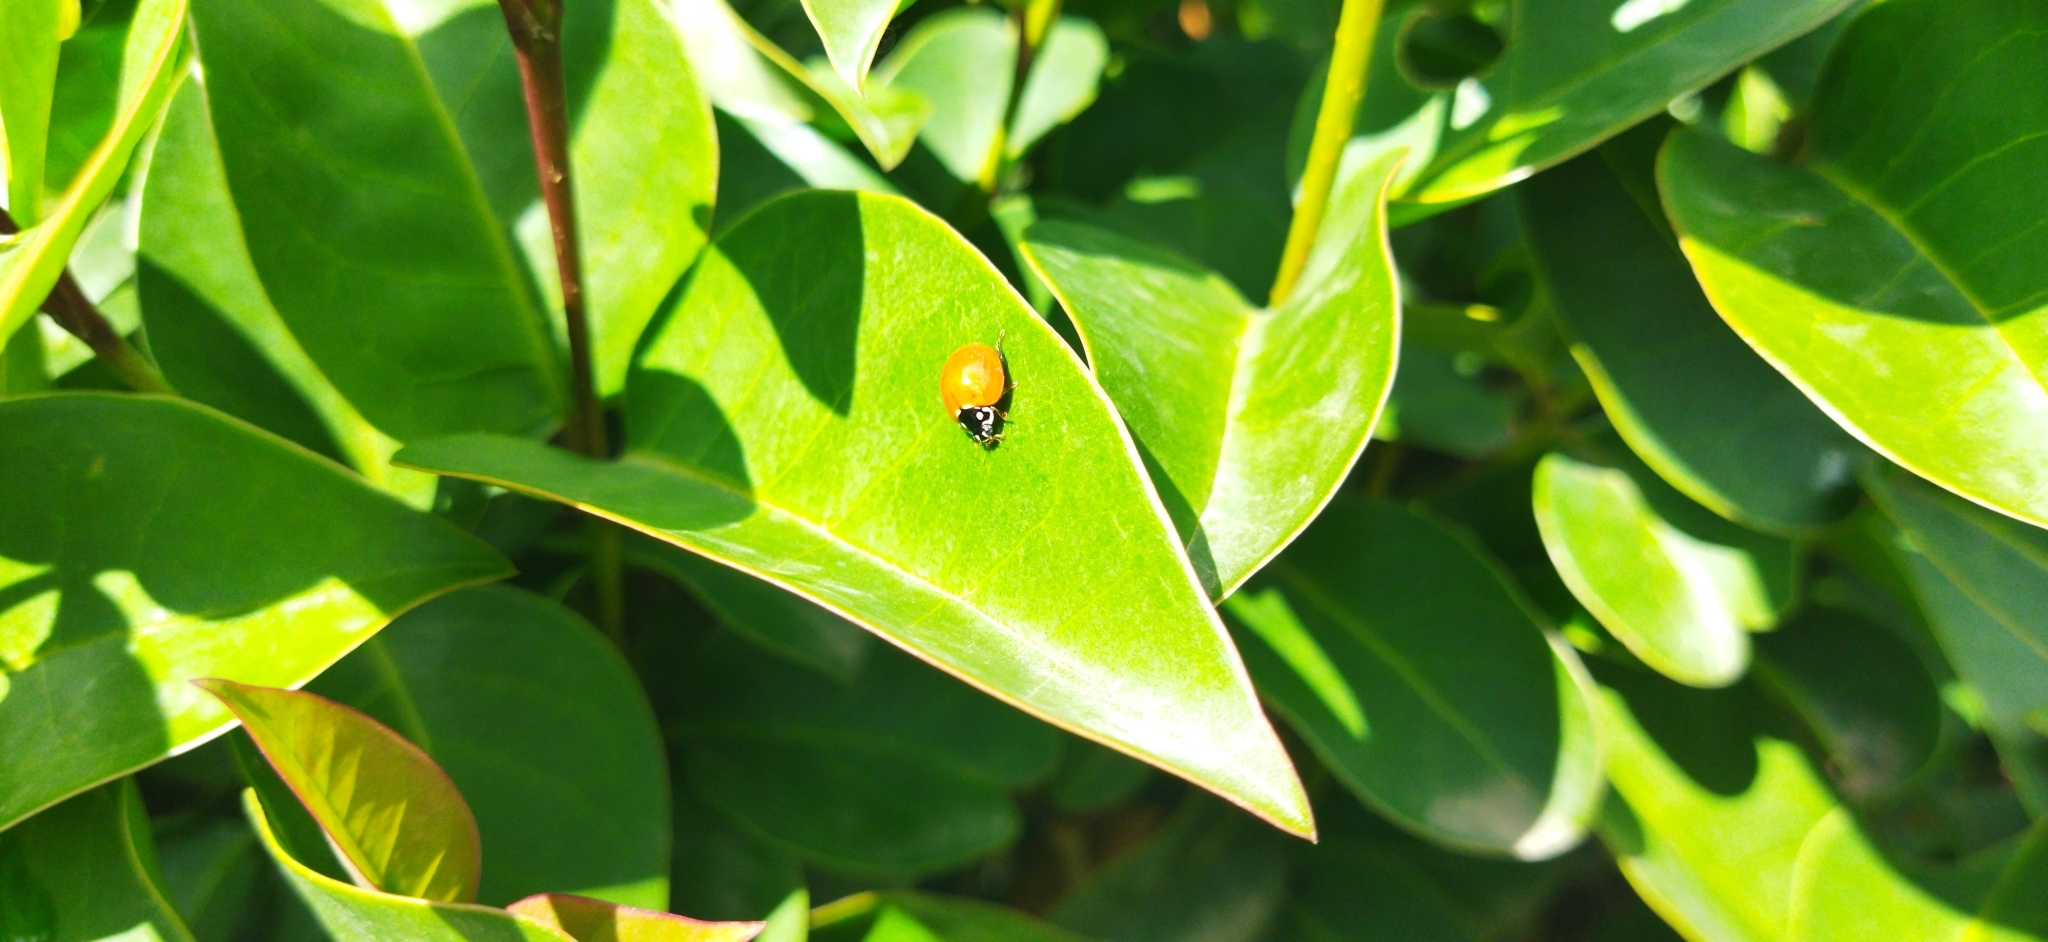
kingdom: Animalia
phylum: Arthropoda
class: Insecta
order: Coleoptera
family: Coccinellidae
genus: Cycloneda
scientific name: Cycloneda sanguinea
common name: Ladybird beetle
